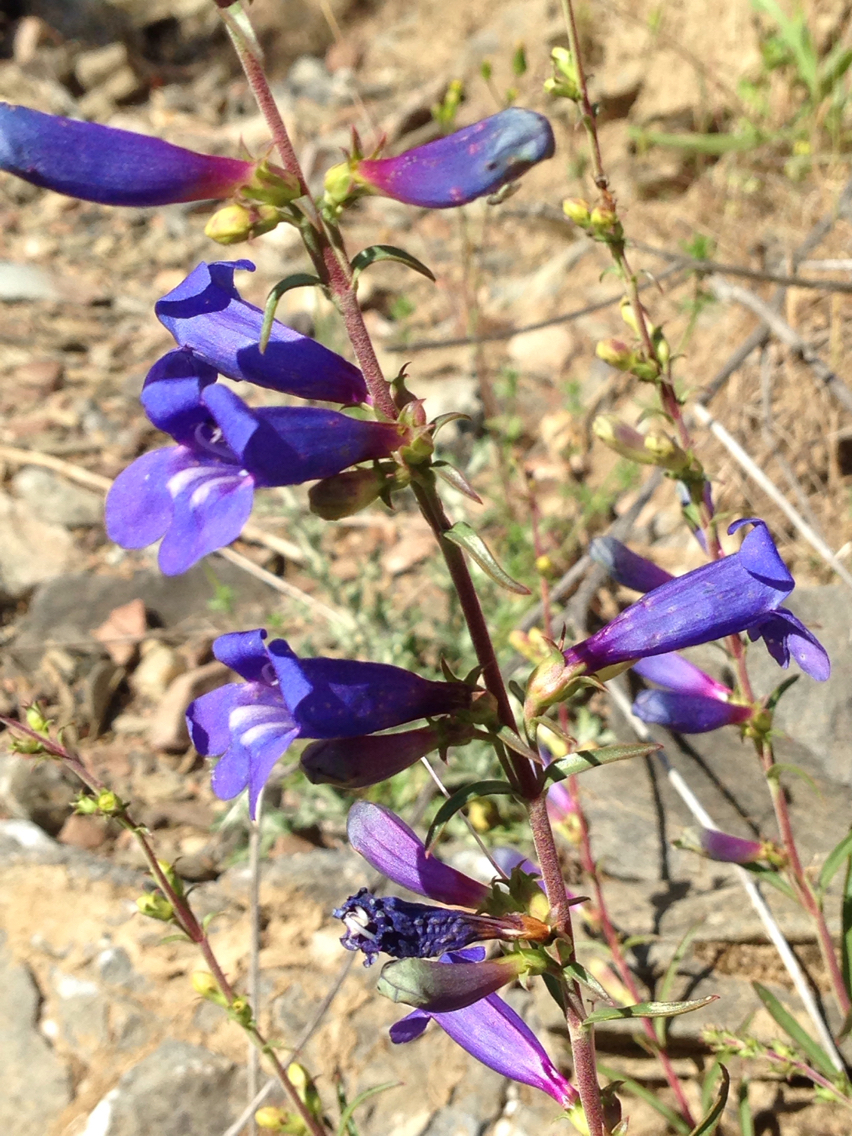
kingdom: Plantae
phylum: Tracheophyta
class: Magnoliopsida
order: Lamiales
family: Plantaginaceae
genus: Penstemon
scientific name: Penstemon heterophyllus
